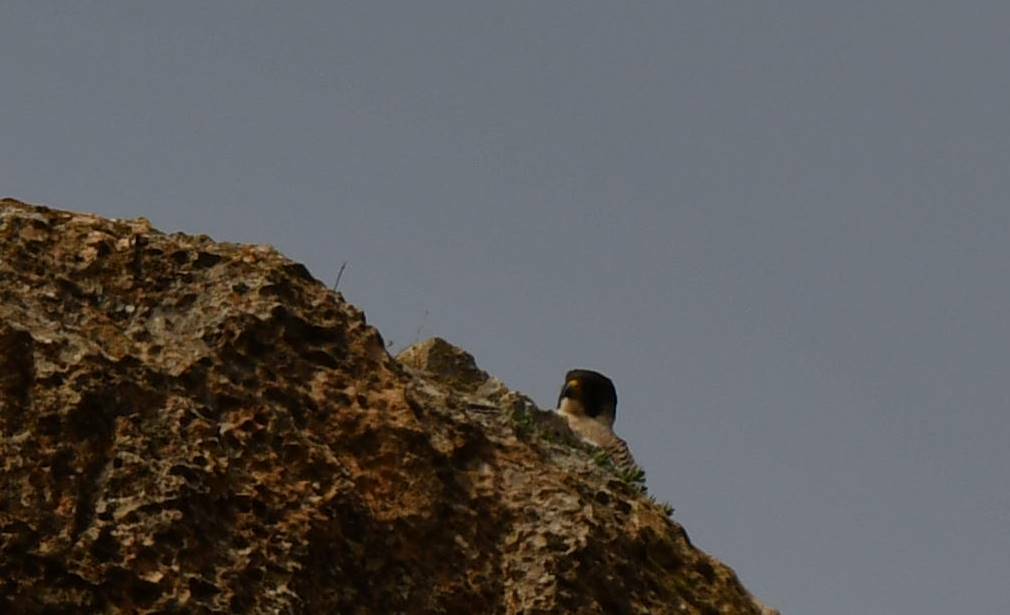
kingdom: Animalia
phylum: Chordata
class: Aves
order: Falconiformes
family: Falconidae
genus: Falco
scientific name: Falco peregrinus
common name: Peregrine falcon
